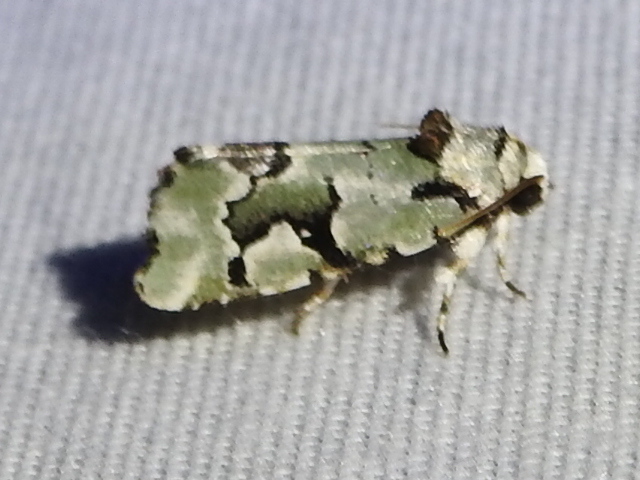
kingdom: Animalia
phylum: Arthropoda
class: Insecta
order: Lepidoptera
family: Noctuidae
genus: Emarginea
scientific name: Emarginea percara
